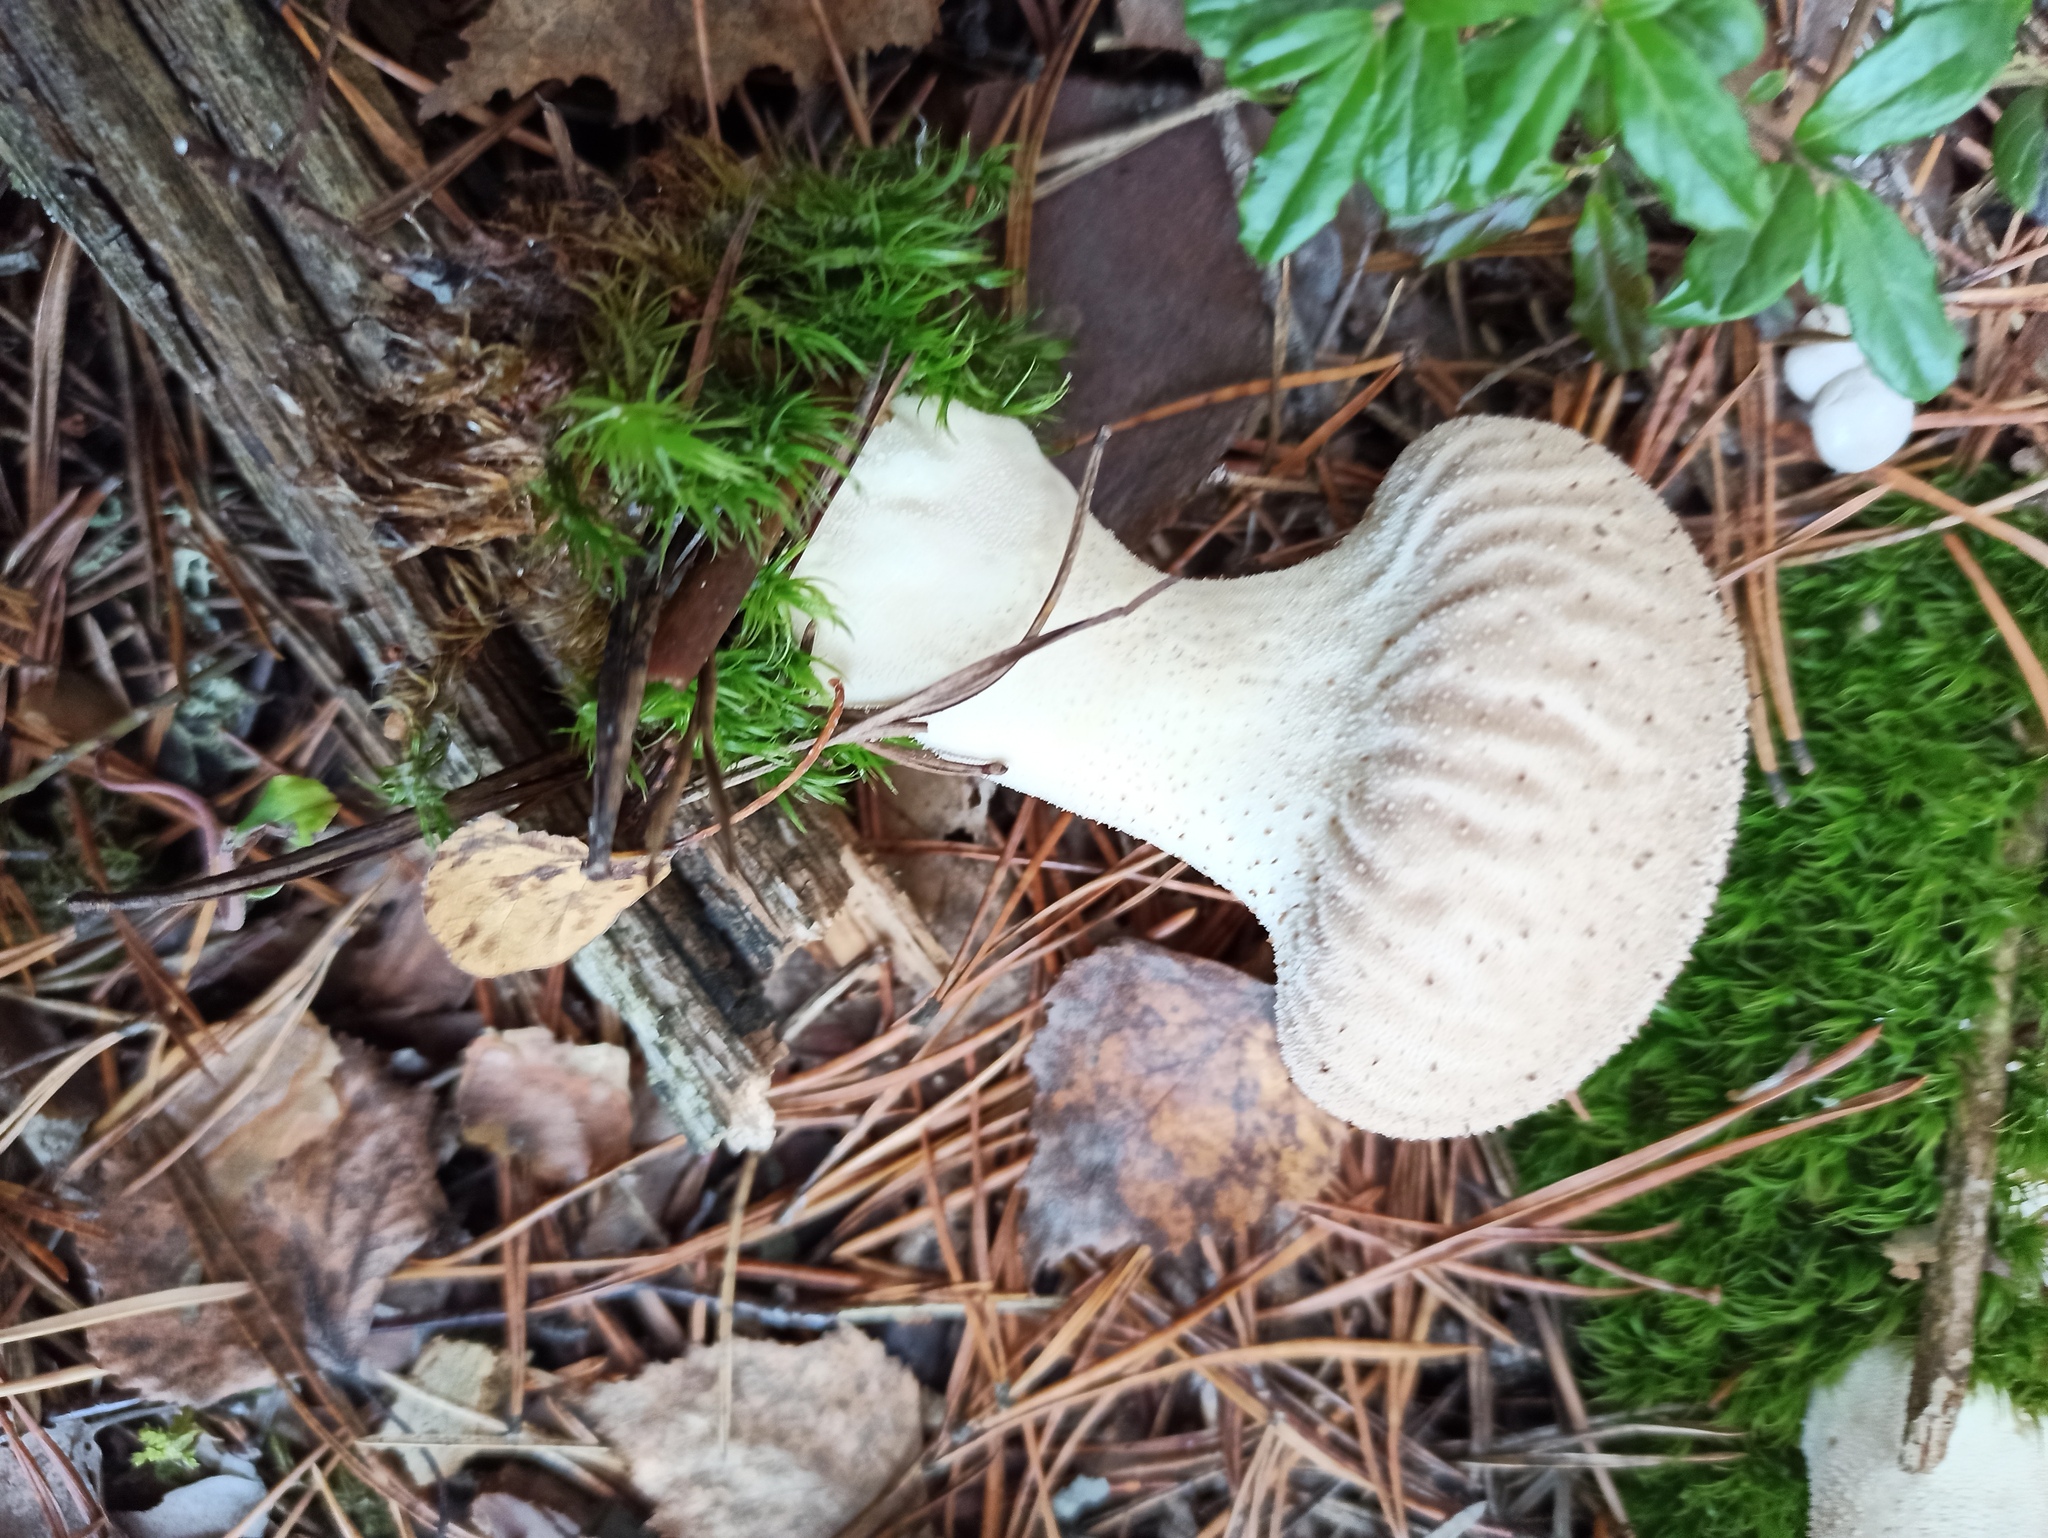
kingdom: Fungi
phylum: Basidiomycota
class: Agaricomycetes
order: Agaricales
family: Lycoperdaceae
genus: Lycoperdon
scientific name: Lycoperdon perlatum
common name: Common puffball
